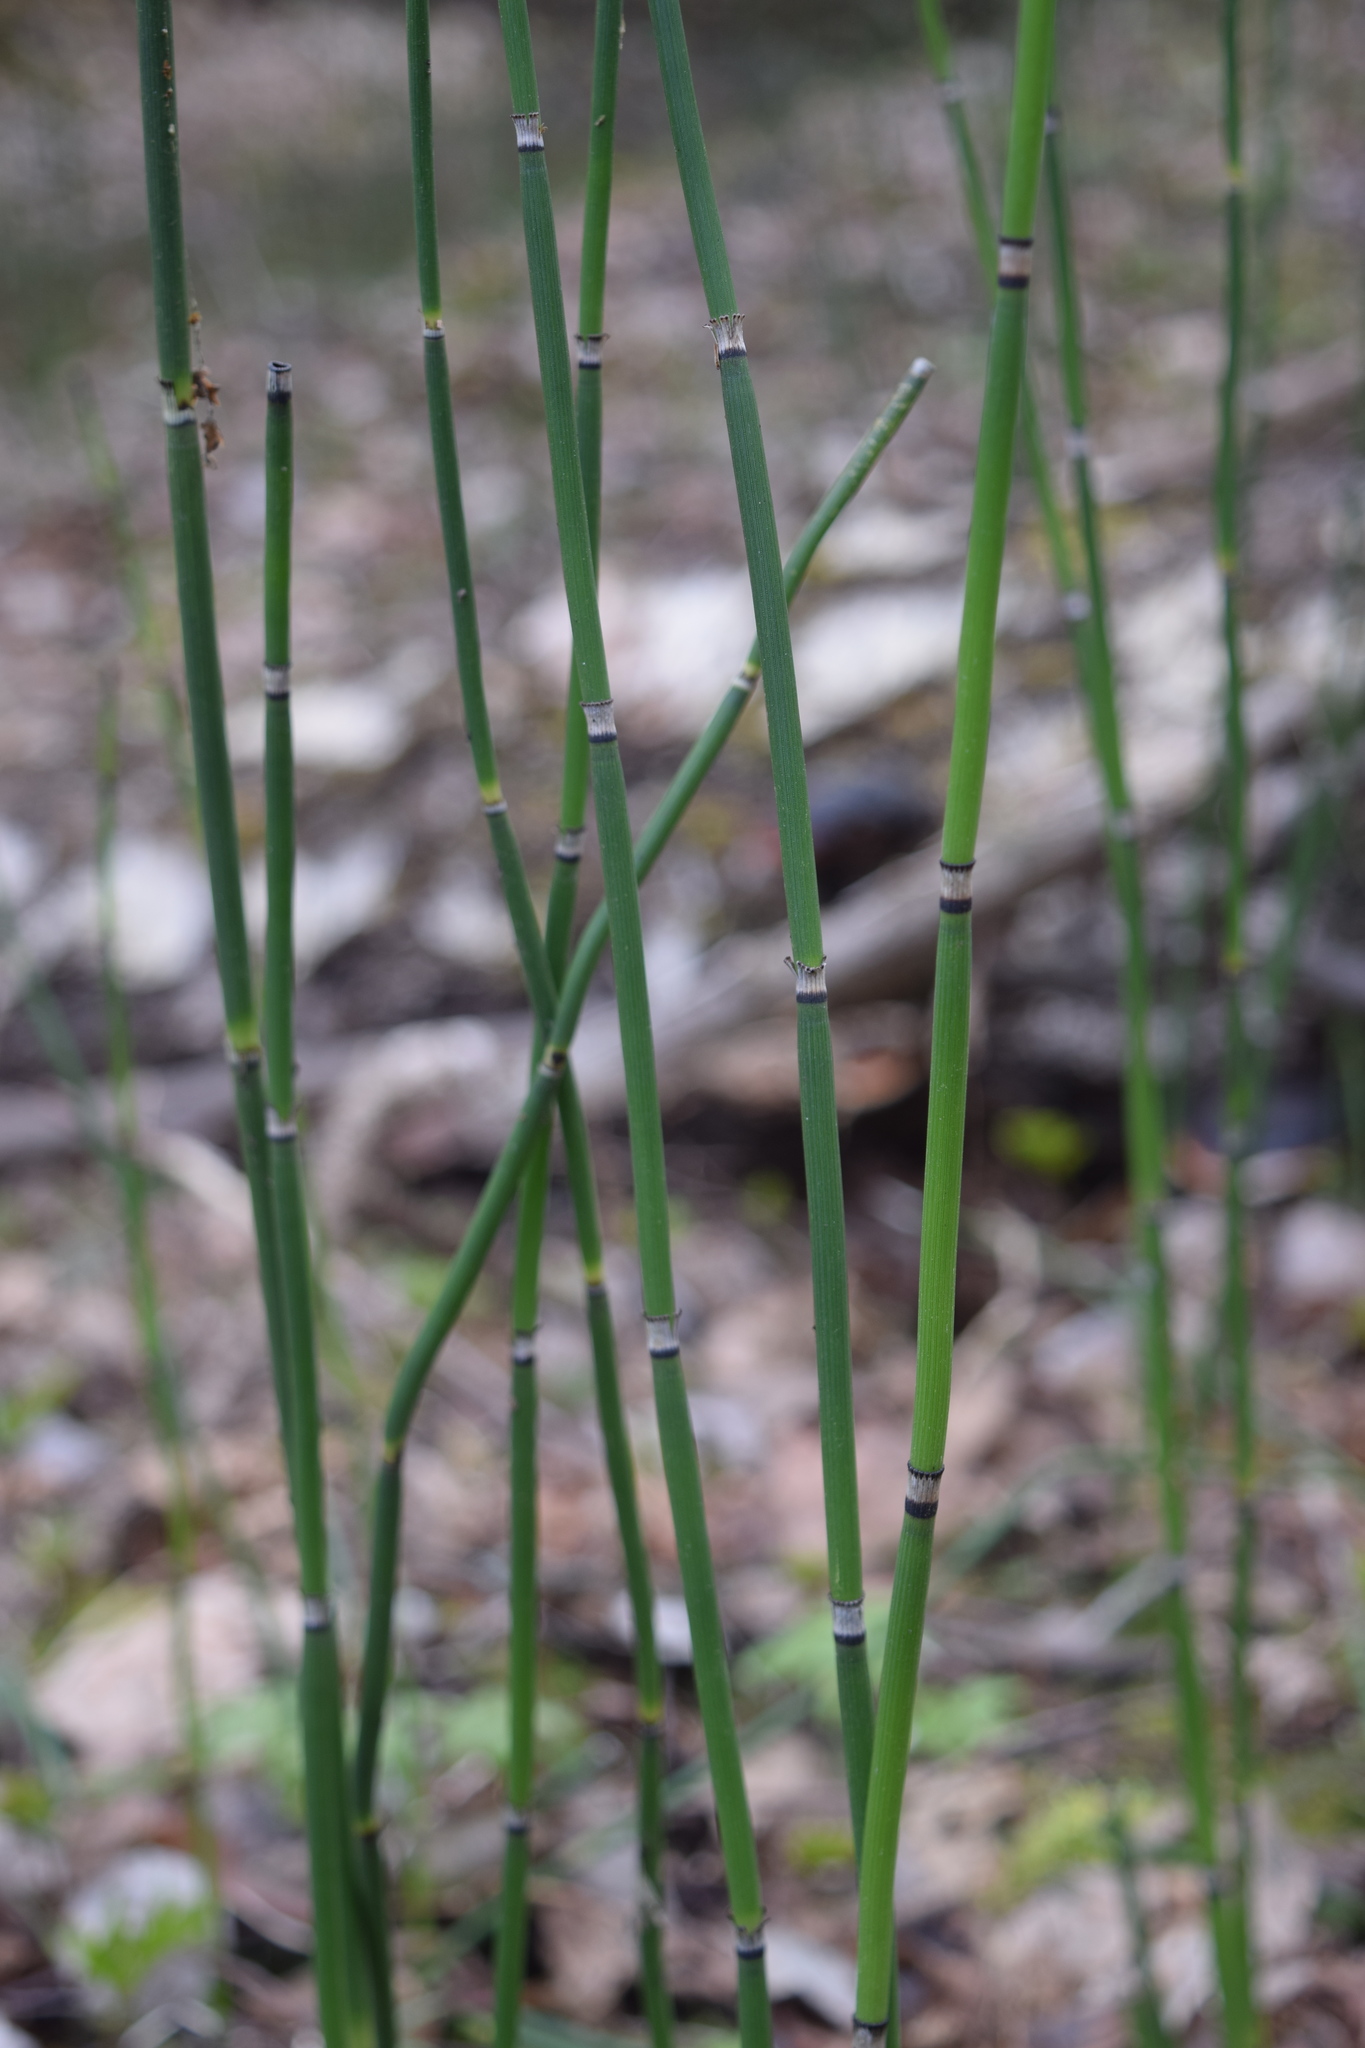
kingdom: Plantae
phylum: Tracheophyta
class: Polypodiopsida
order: Equisetales
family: Equisetaceae
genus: Equisetum
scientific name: Equisetum hyemale
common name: Rough horsetail
